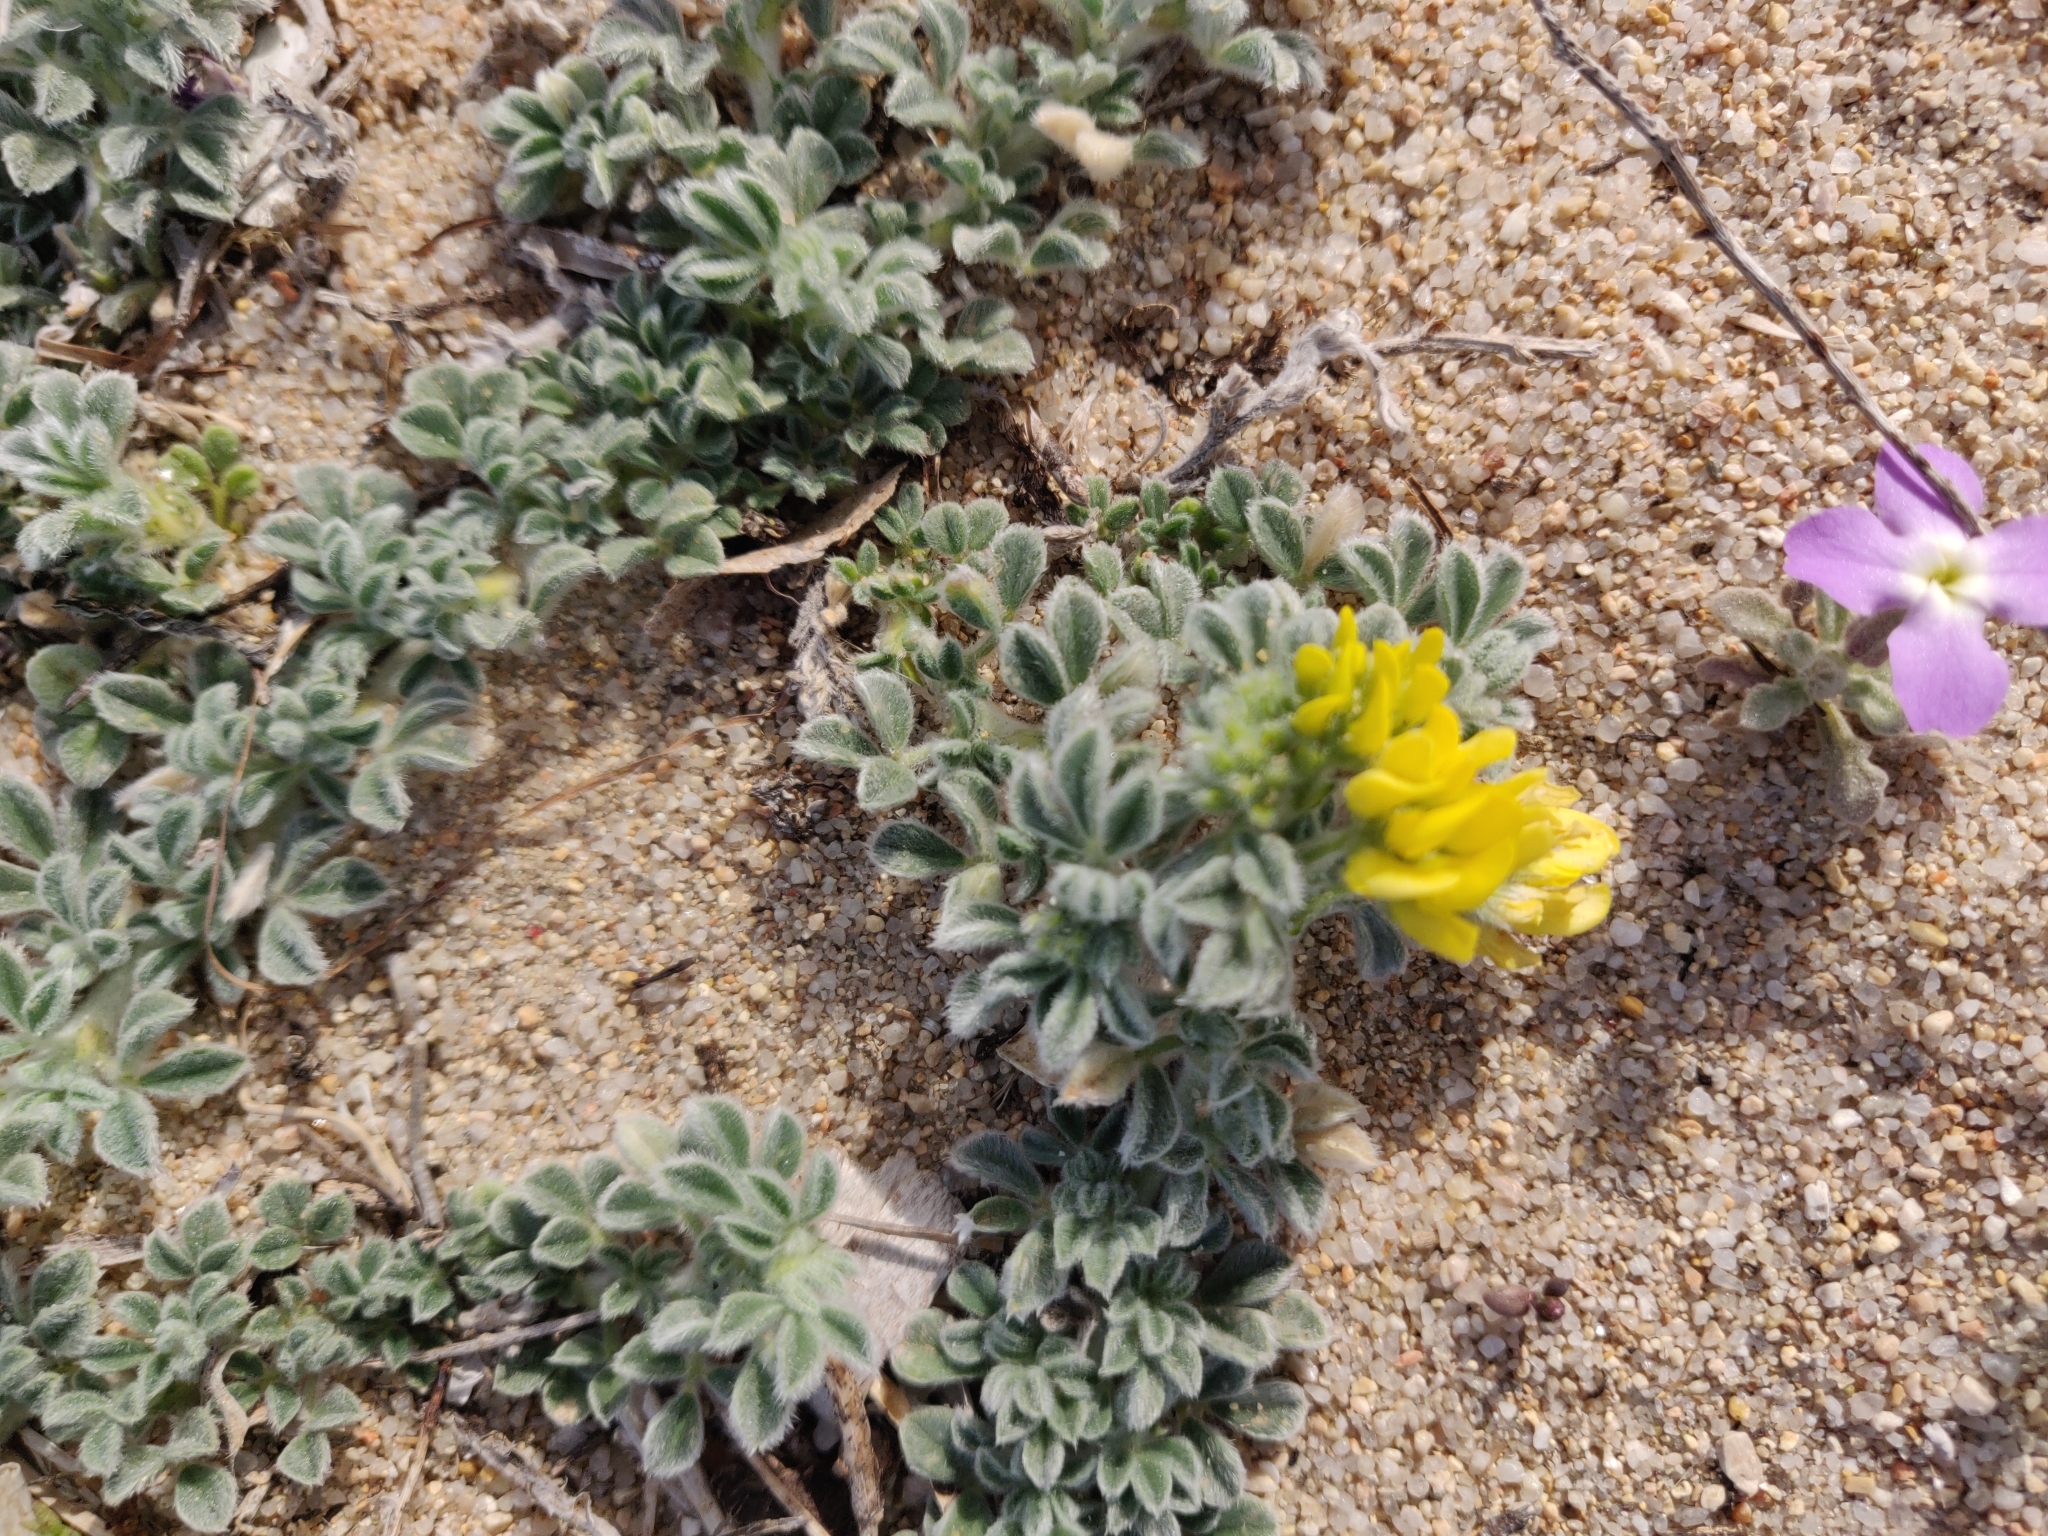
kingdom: Plantae
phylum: Tracheophyta
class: Magnoliopsida
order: Fabales
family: Fabaceae
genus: Medicago
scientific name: Medicago marina
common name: Sea medick
